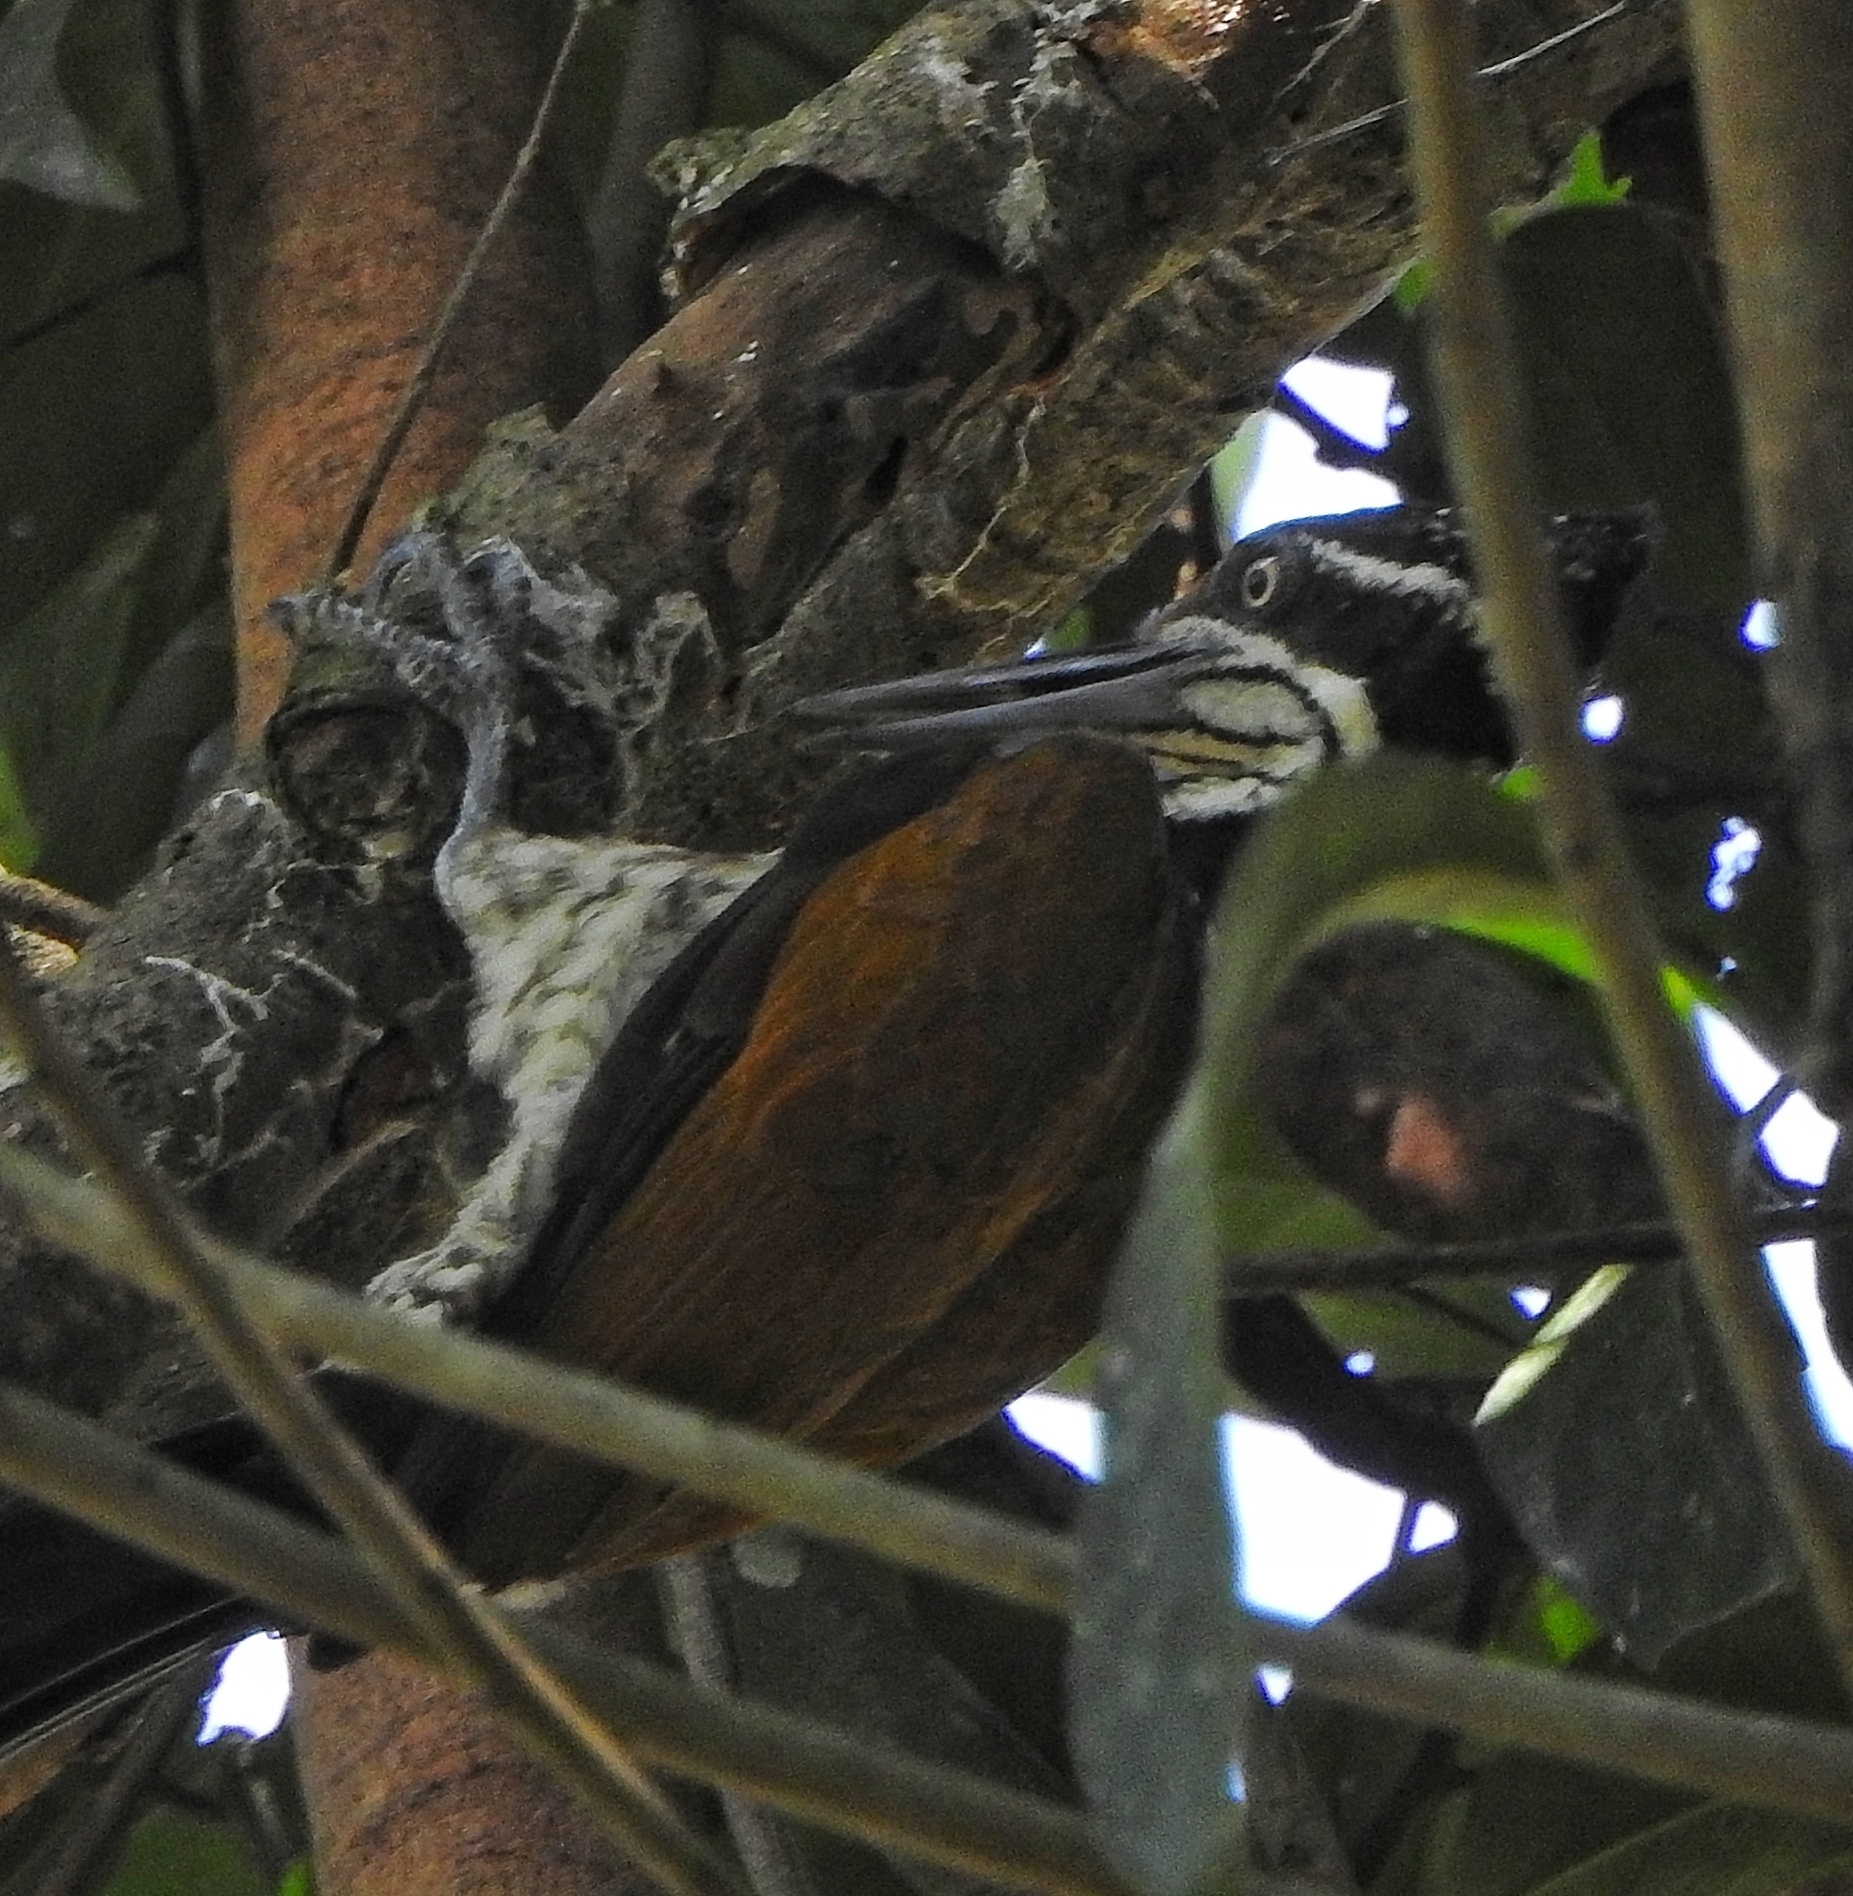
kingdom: Animalia
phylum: Chordata
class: Aves
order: Piciformes
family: Picidae
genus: Chrysocolaptes
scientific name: Chrysocolaptes socialis
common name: Malabar flameback
